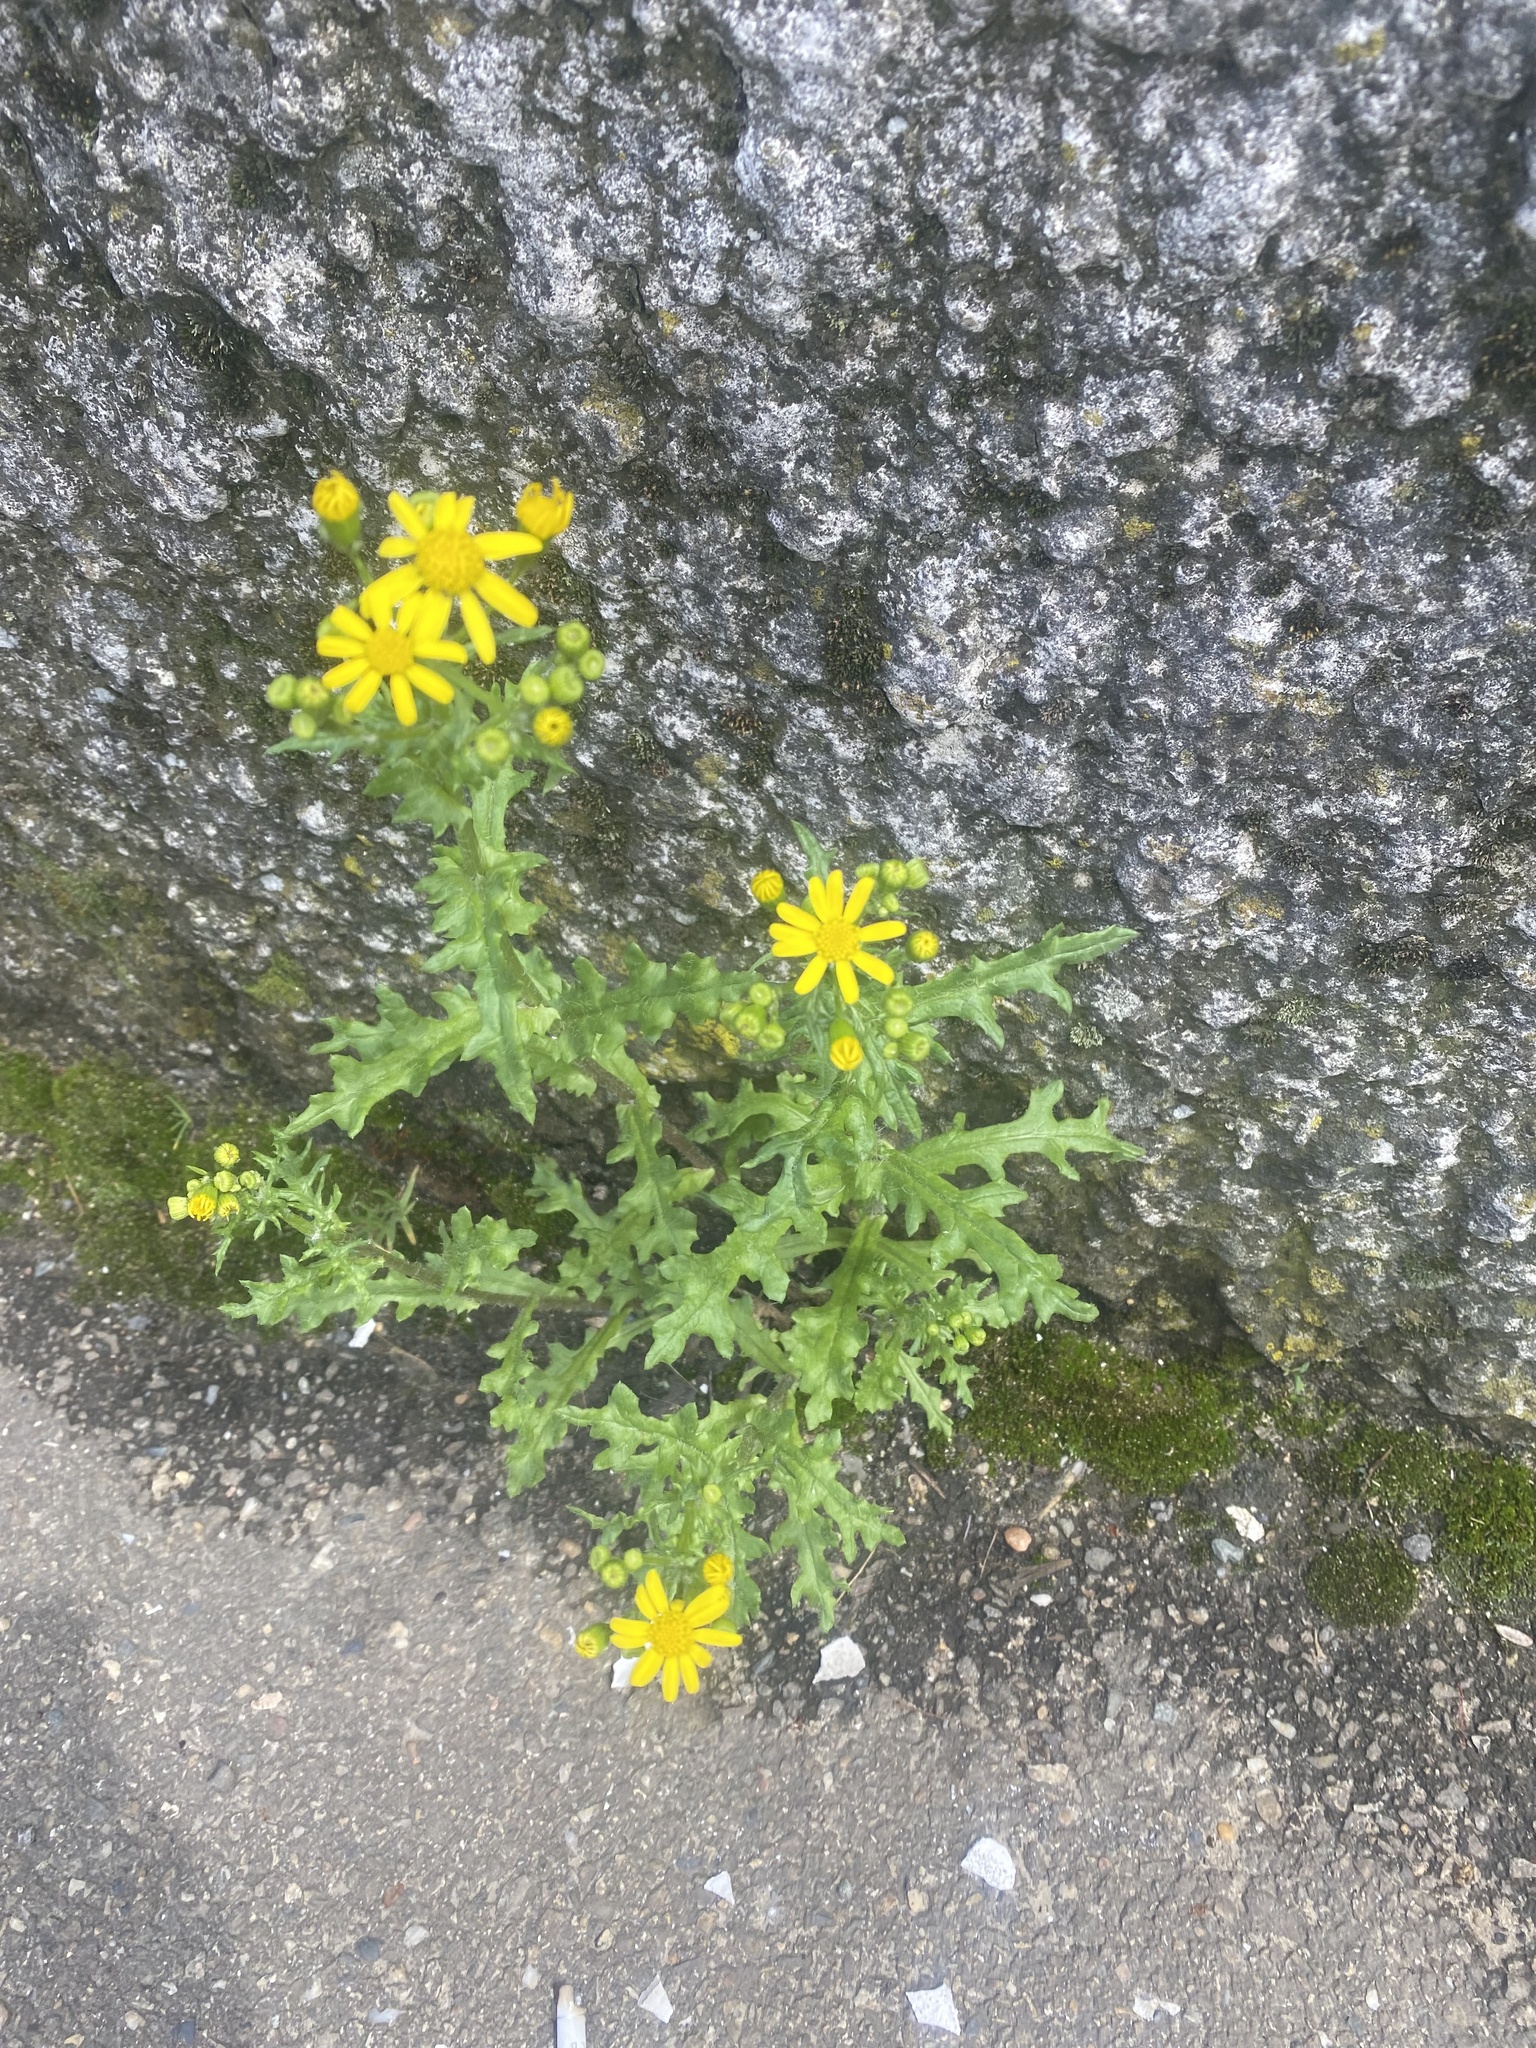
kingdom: Plantae
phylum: Tracheophyta
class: Magnoliopsida
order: Asterales
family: Asteraceae
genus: Senecio
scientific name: Senecio vernalis
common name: Eastern groundsel
